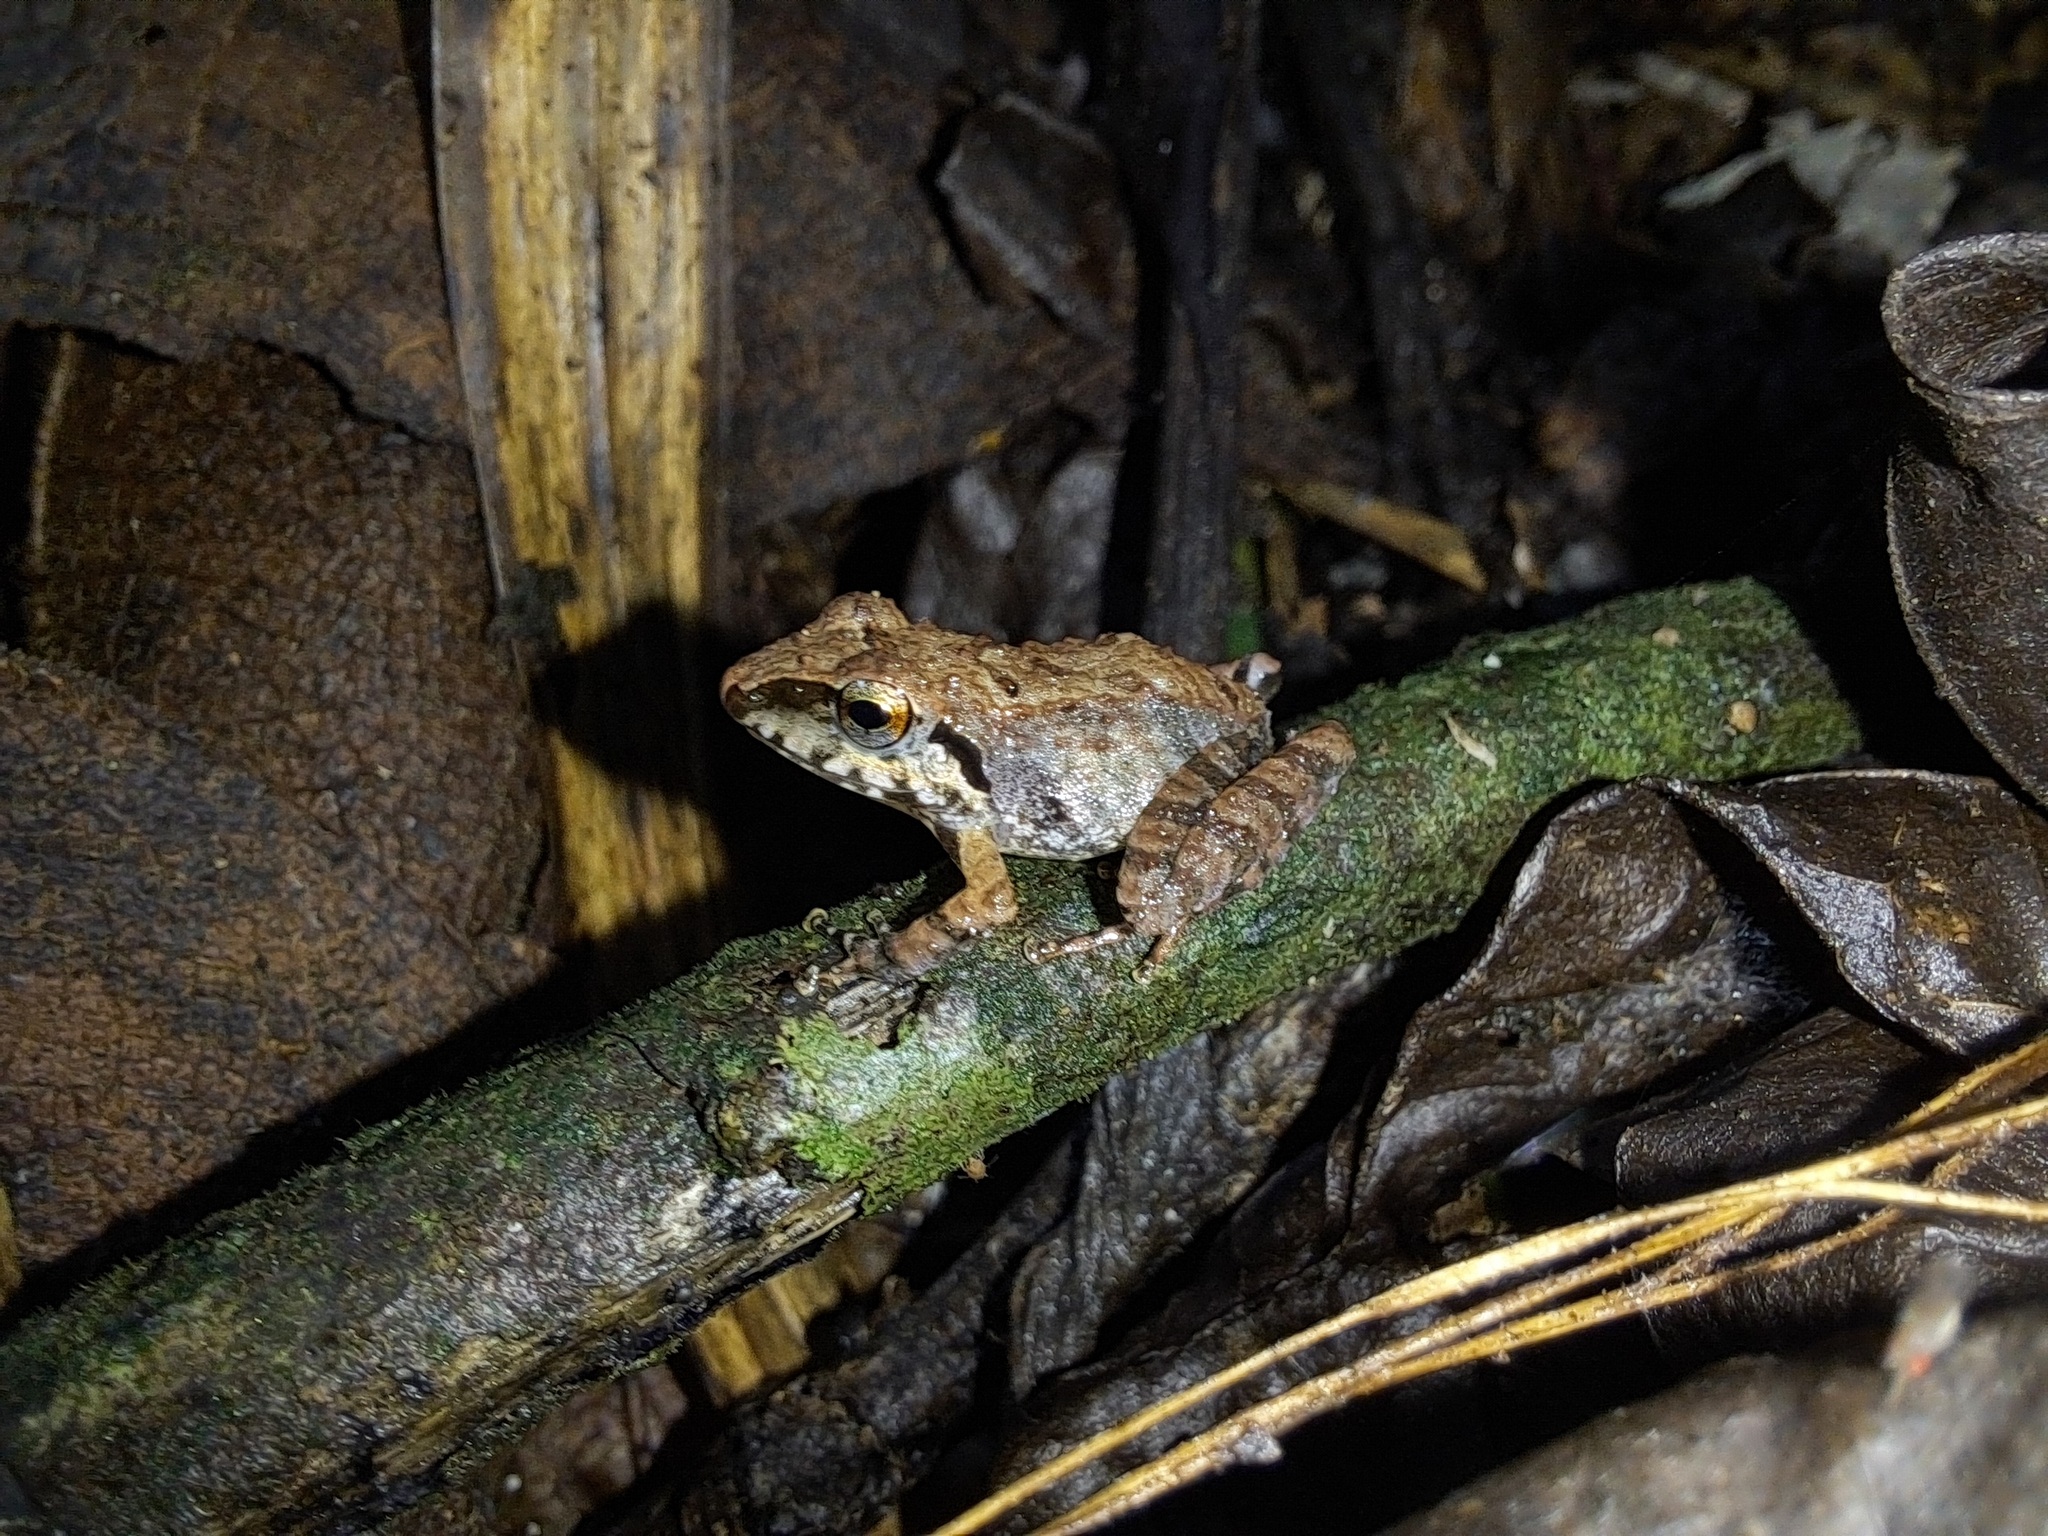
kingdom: Animalia
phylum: Chordata
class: Amphibia
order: Anura
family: Craugastoridae
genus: Pristimantis
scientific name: Pristimantis achatinus
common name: Cachabi robber frog
